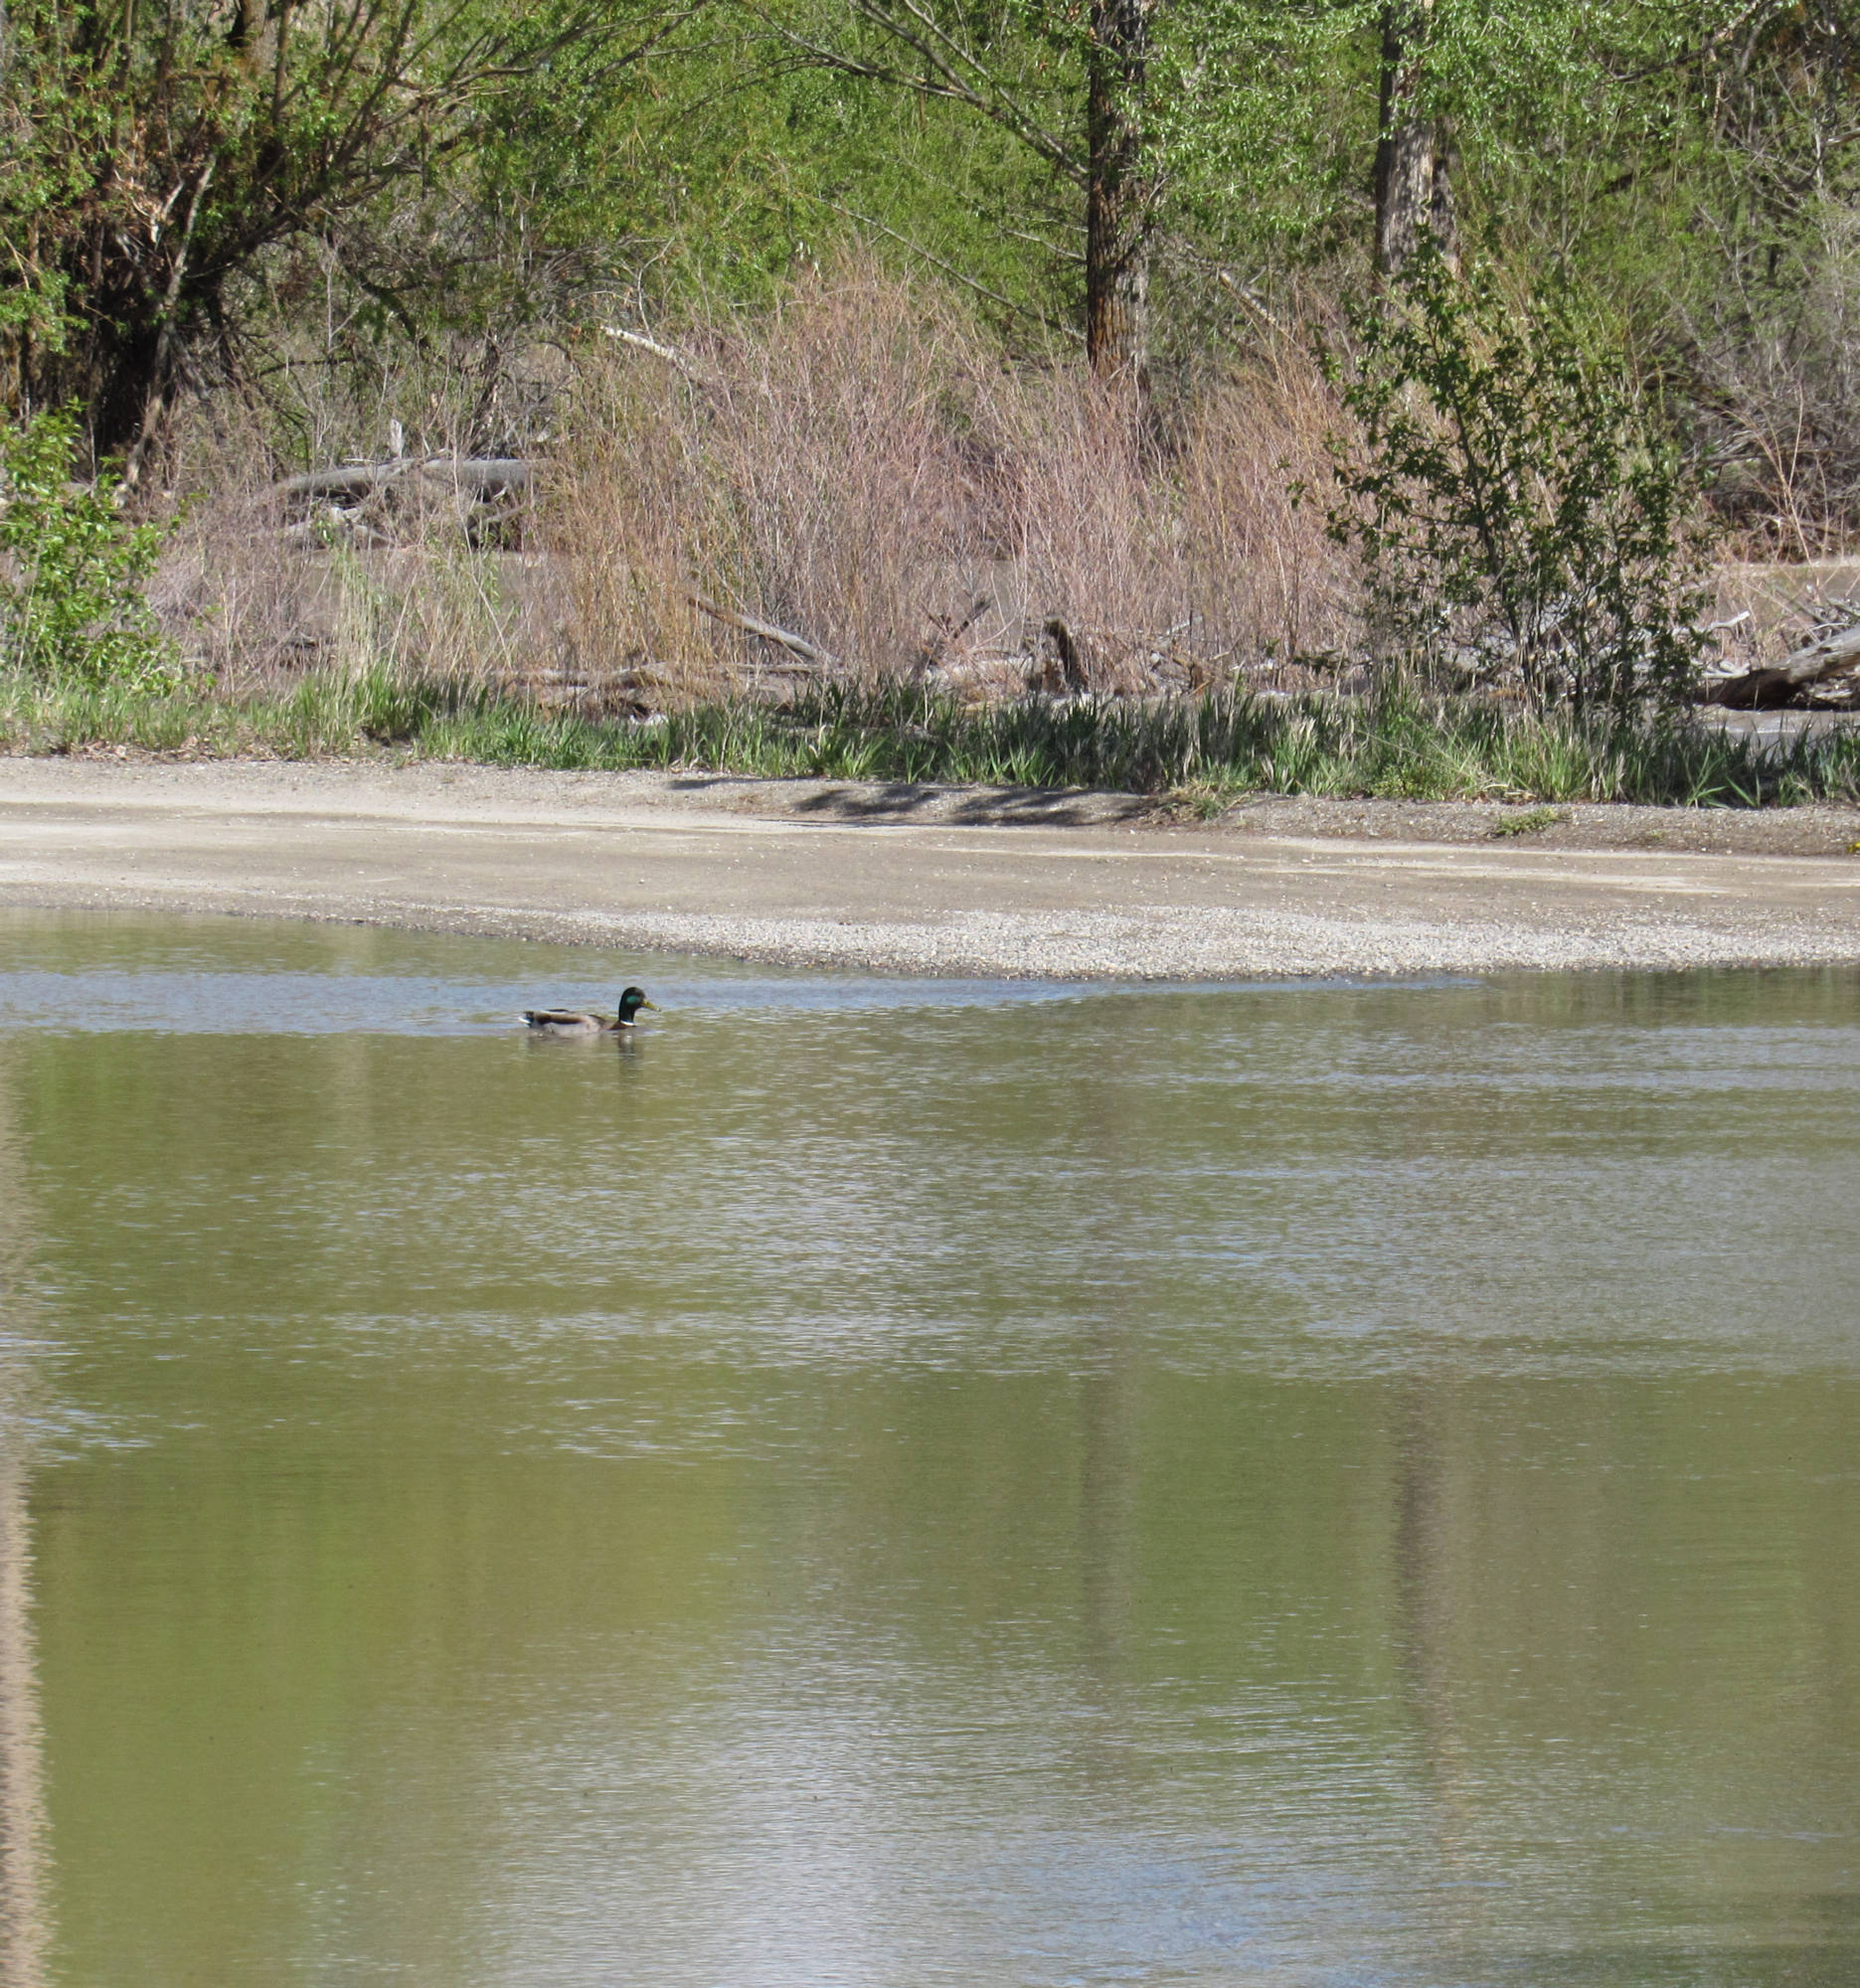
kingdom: Animalia
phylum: Chordata
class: Aves
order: Anseriformes
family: Anatidae
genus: Anas
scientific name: Anas platyrhynchos
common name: Mallard
